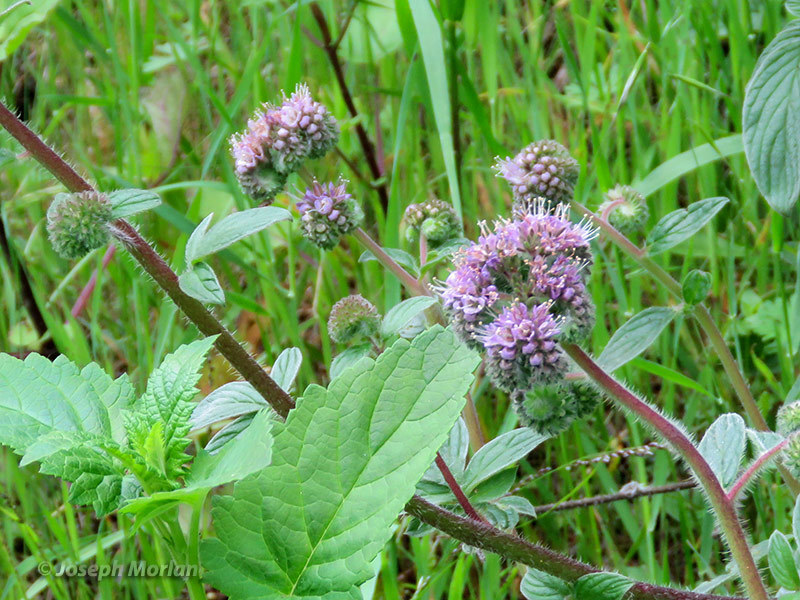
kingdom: Plantae
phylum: Tracheophyta
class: Magnoliopsida
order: Boraginales
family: Hydrophyllaceae
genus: Phacelia
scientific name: Phacelia californica
